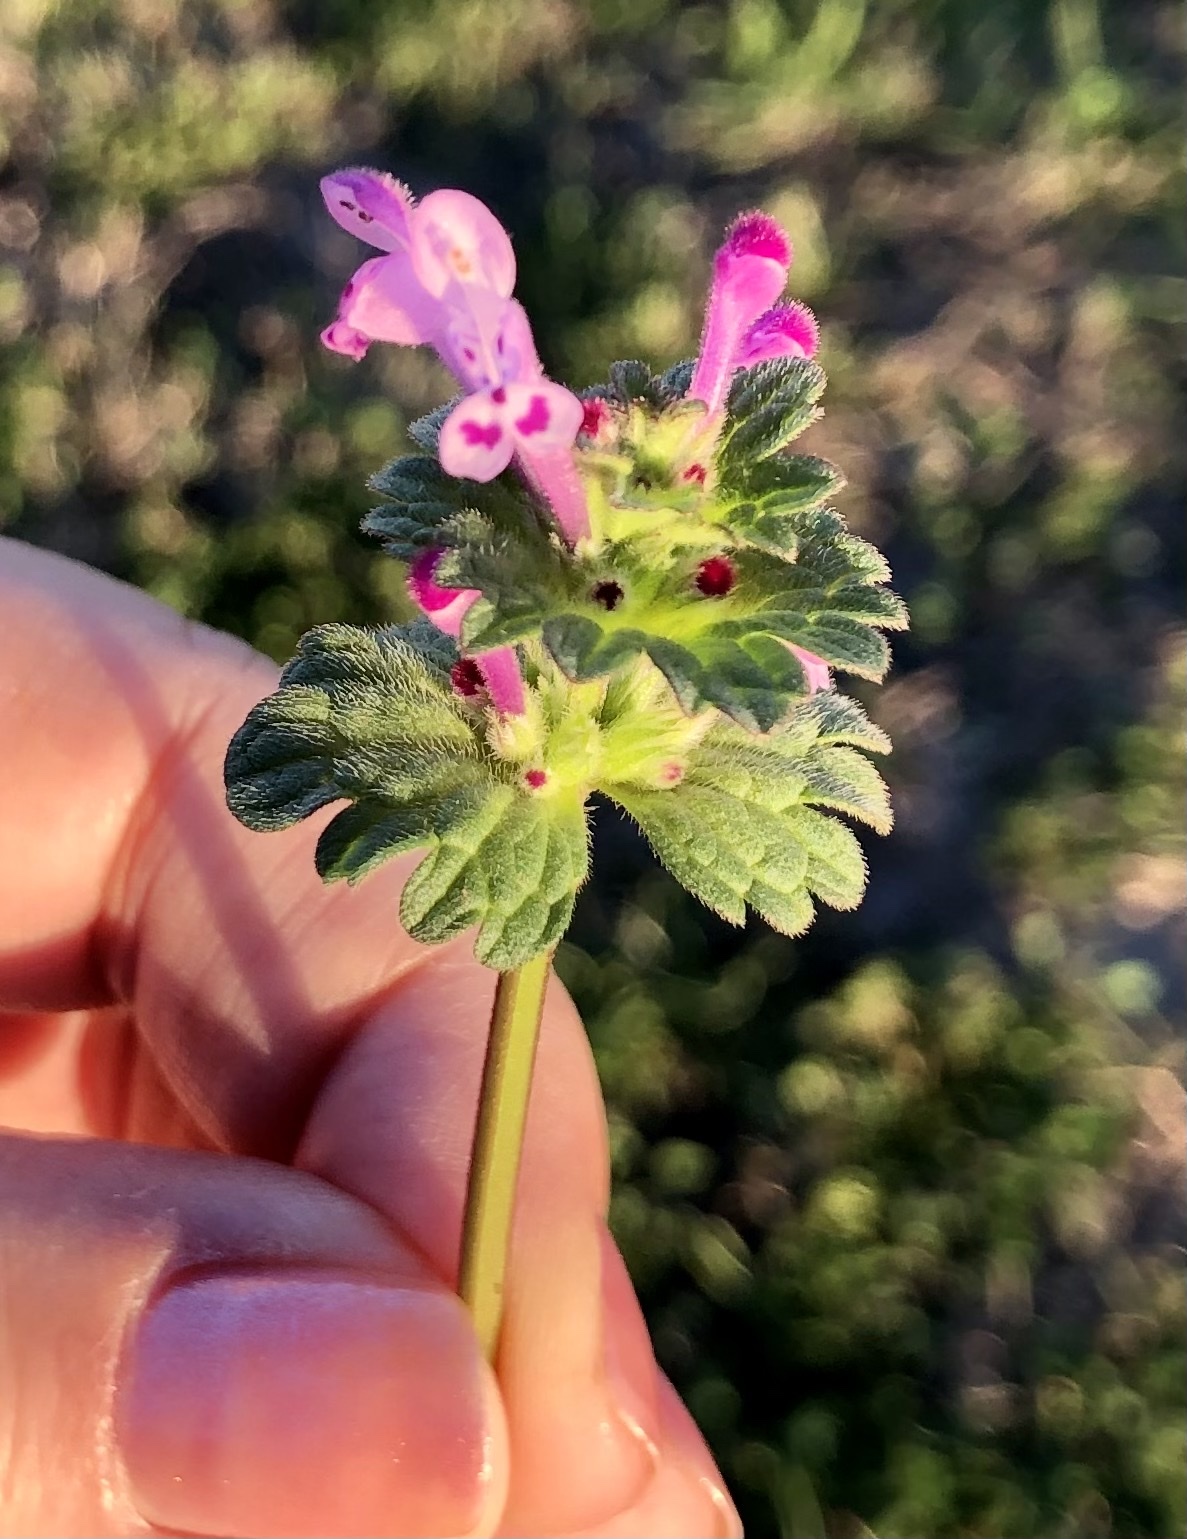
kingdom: Plantae
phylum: Tracheophyta
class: Magnoliopsida
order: Lamiales
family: Lamiaceae
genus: Lamium
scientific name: Lamium amplexicaule
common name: Henbit dead-nettle
